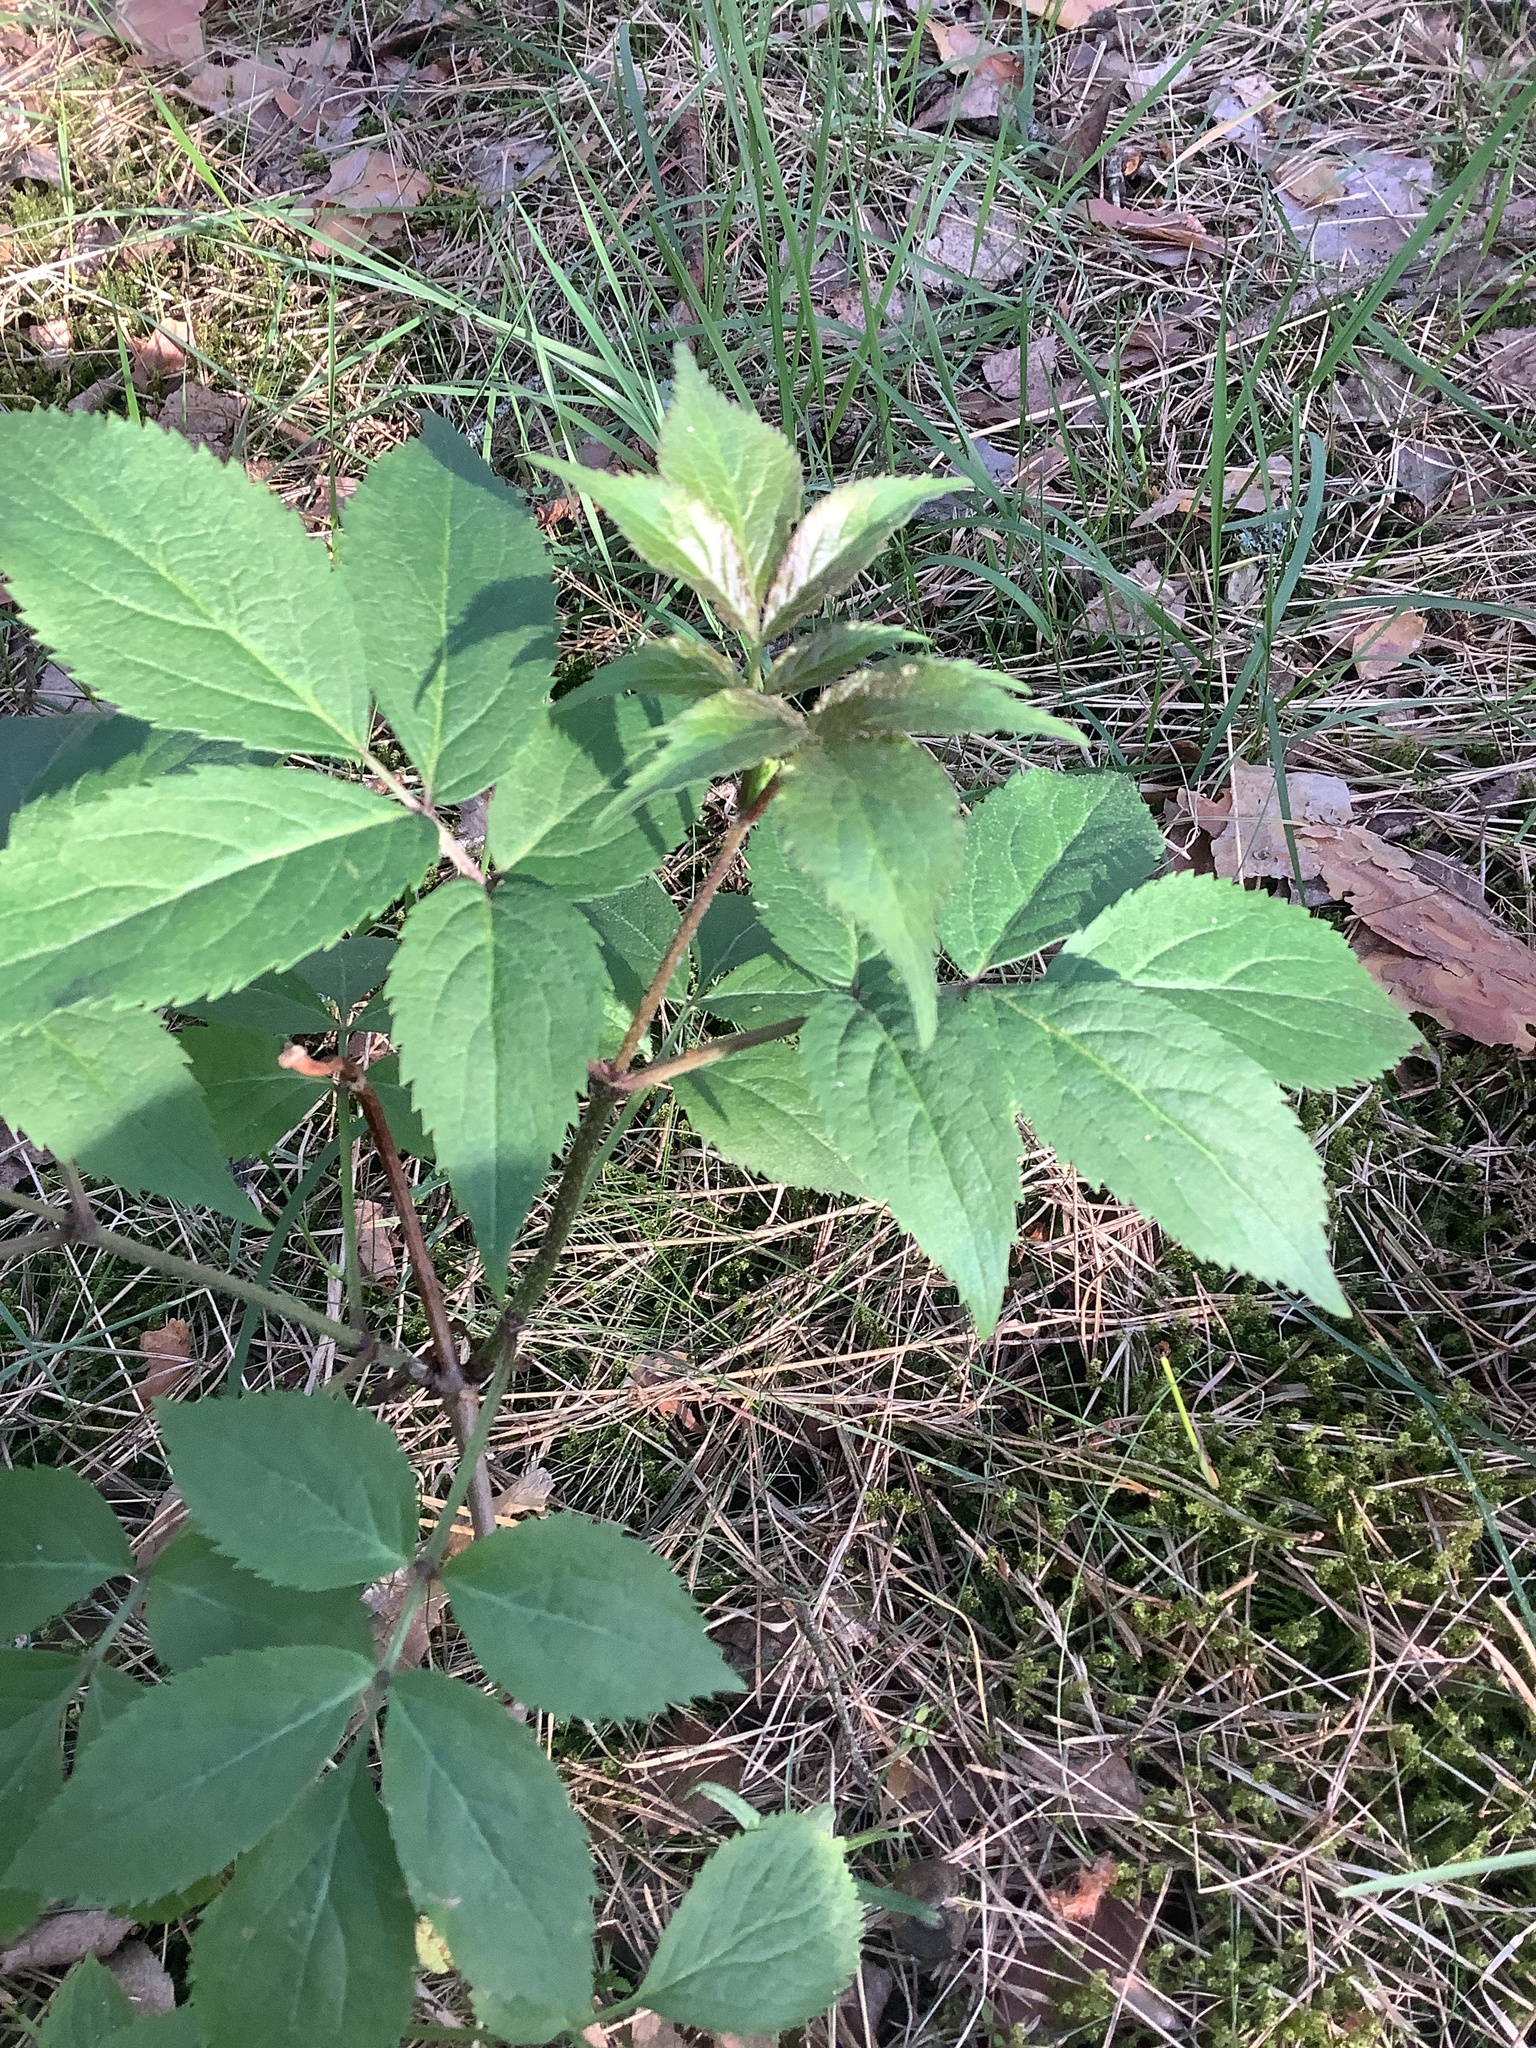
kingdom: Plantae
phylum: Tracheophyta
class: Magnoliopsida
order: Dipsacales
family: Viburnaceae
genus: Sambucus
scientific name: Sambucus racemosa
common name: Red-berried elder
